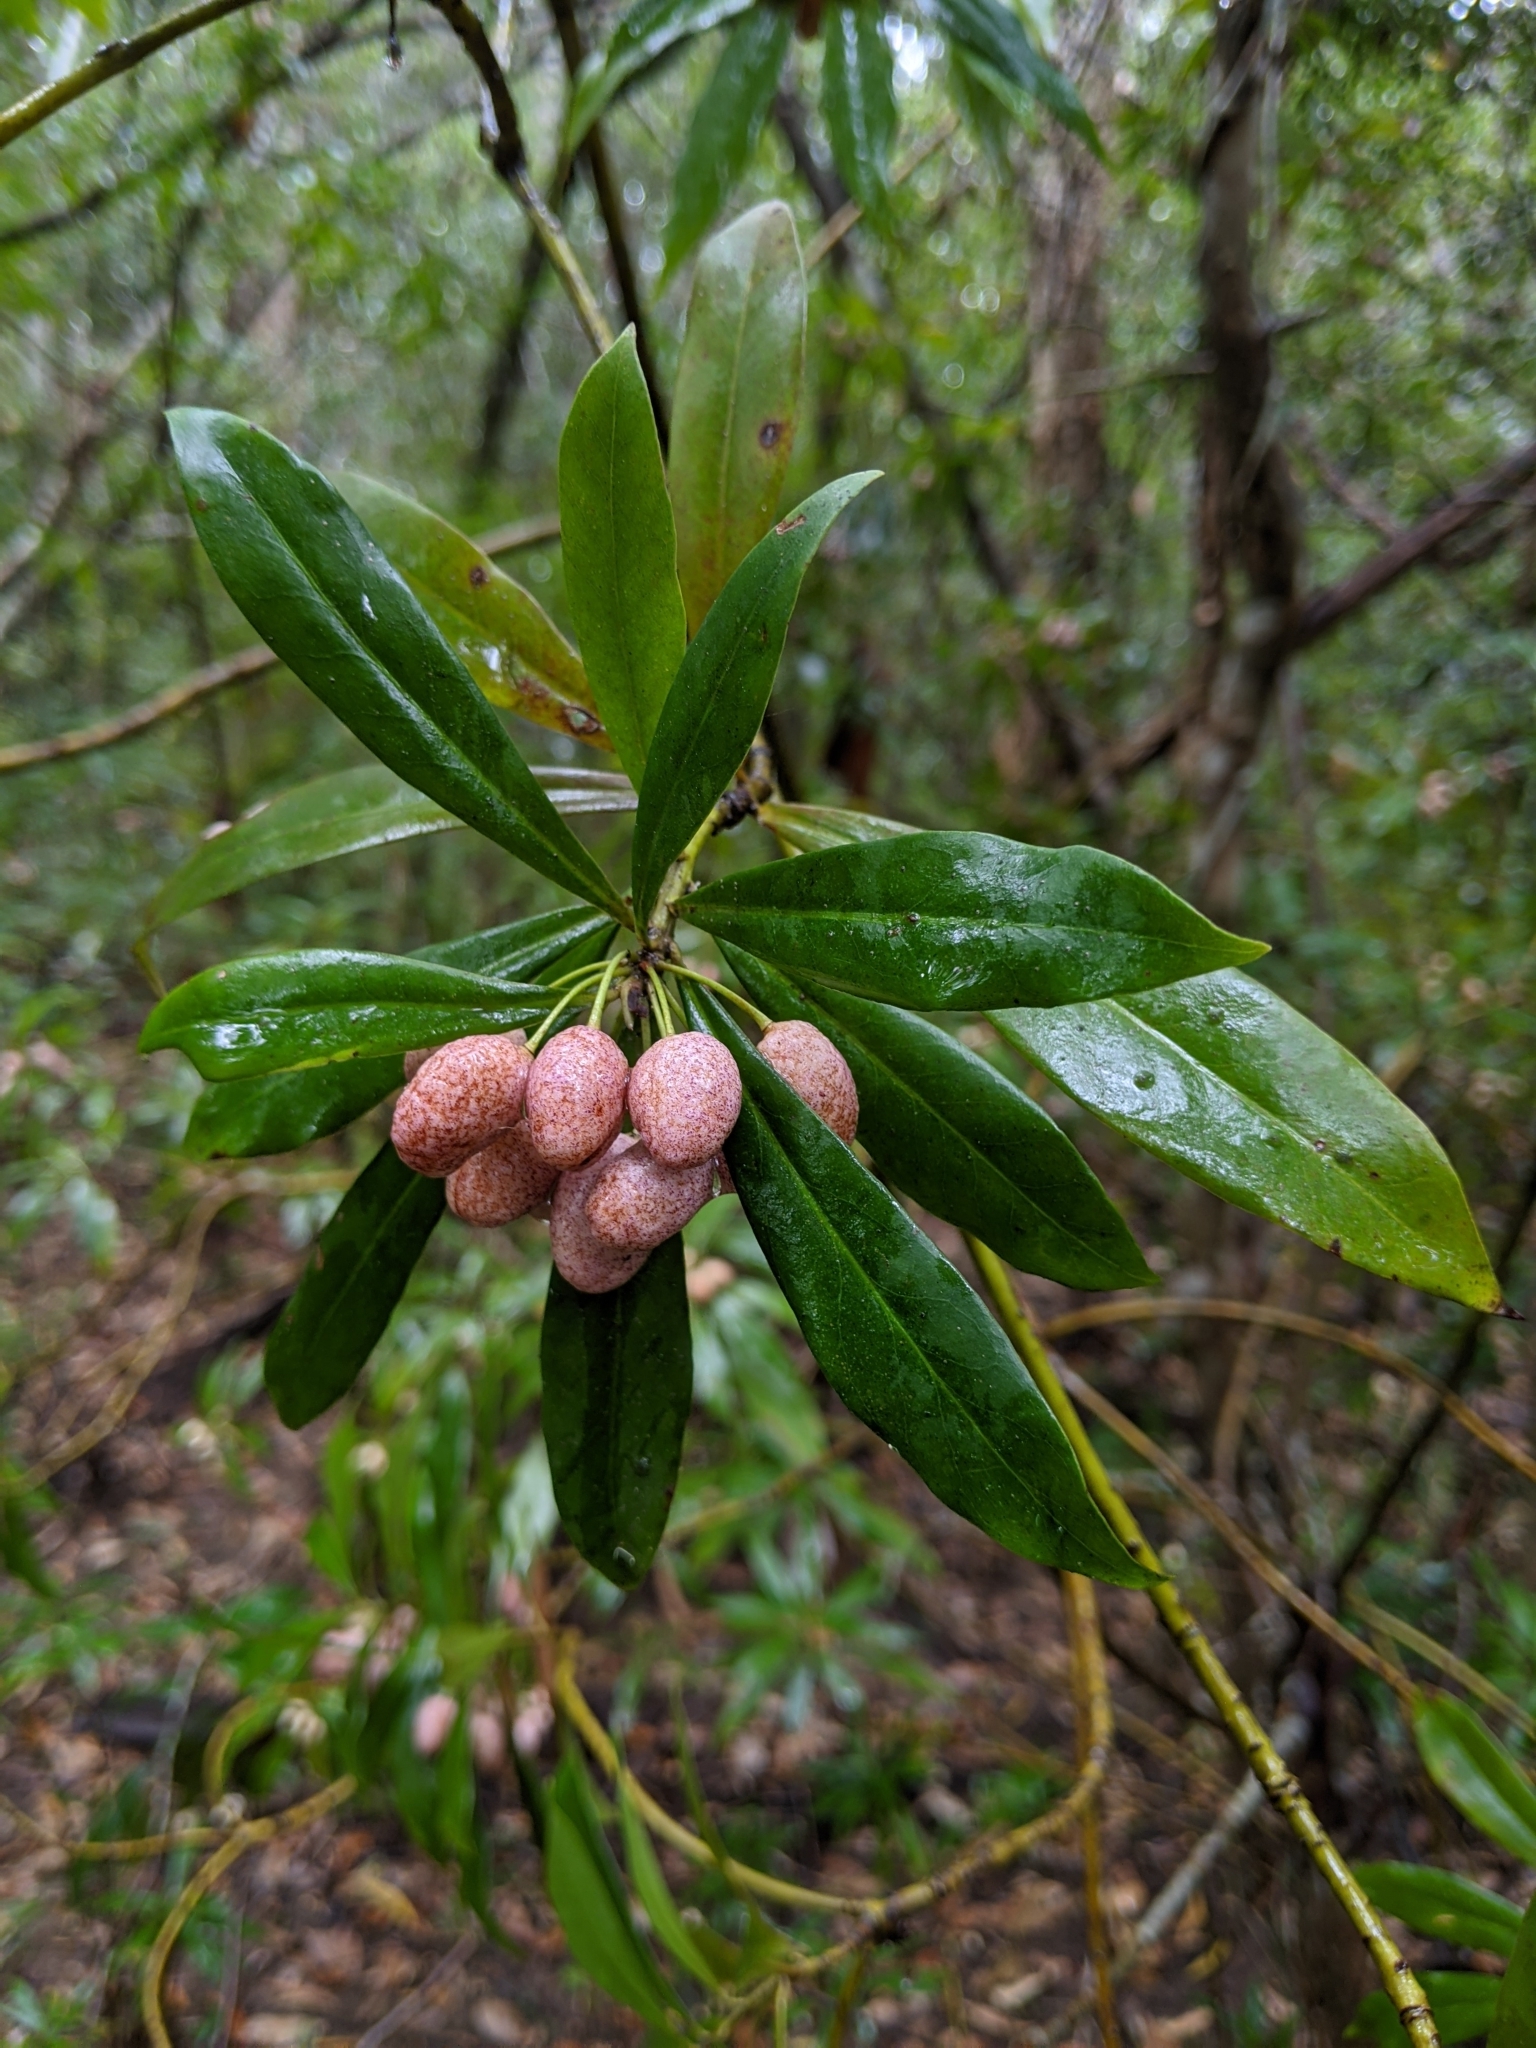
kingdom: Plantae
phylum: Tracheophyta
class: Magnoliopsida
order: Canellales
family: Winteraceae
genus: Drimys
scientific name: Drimys insipida
